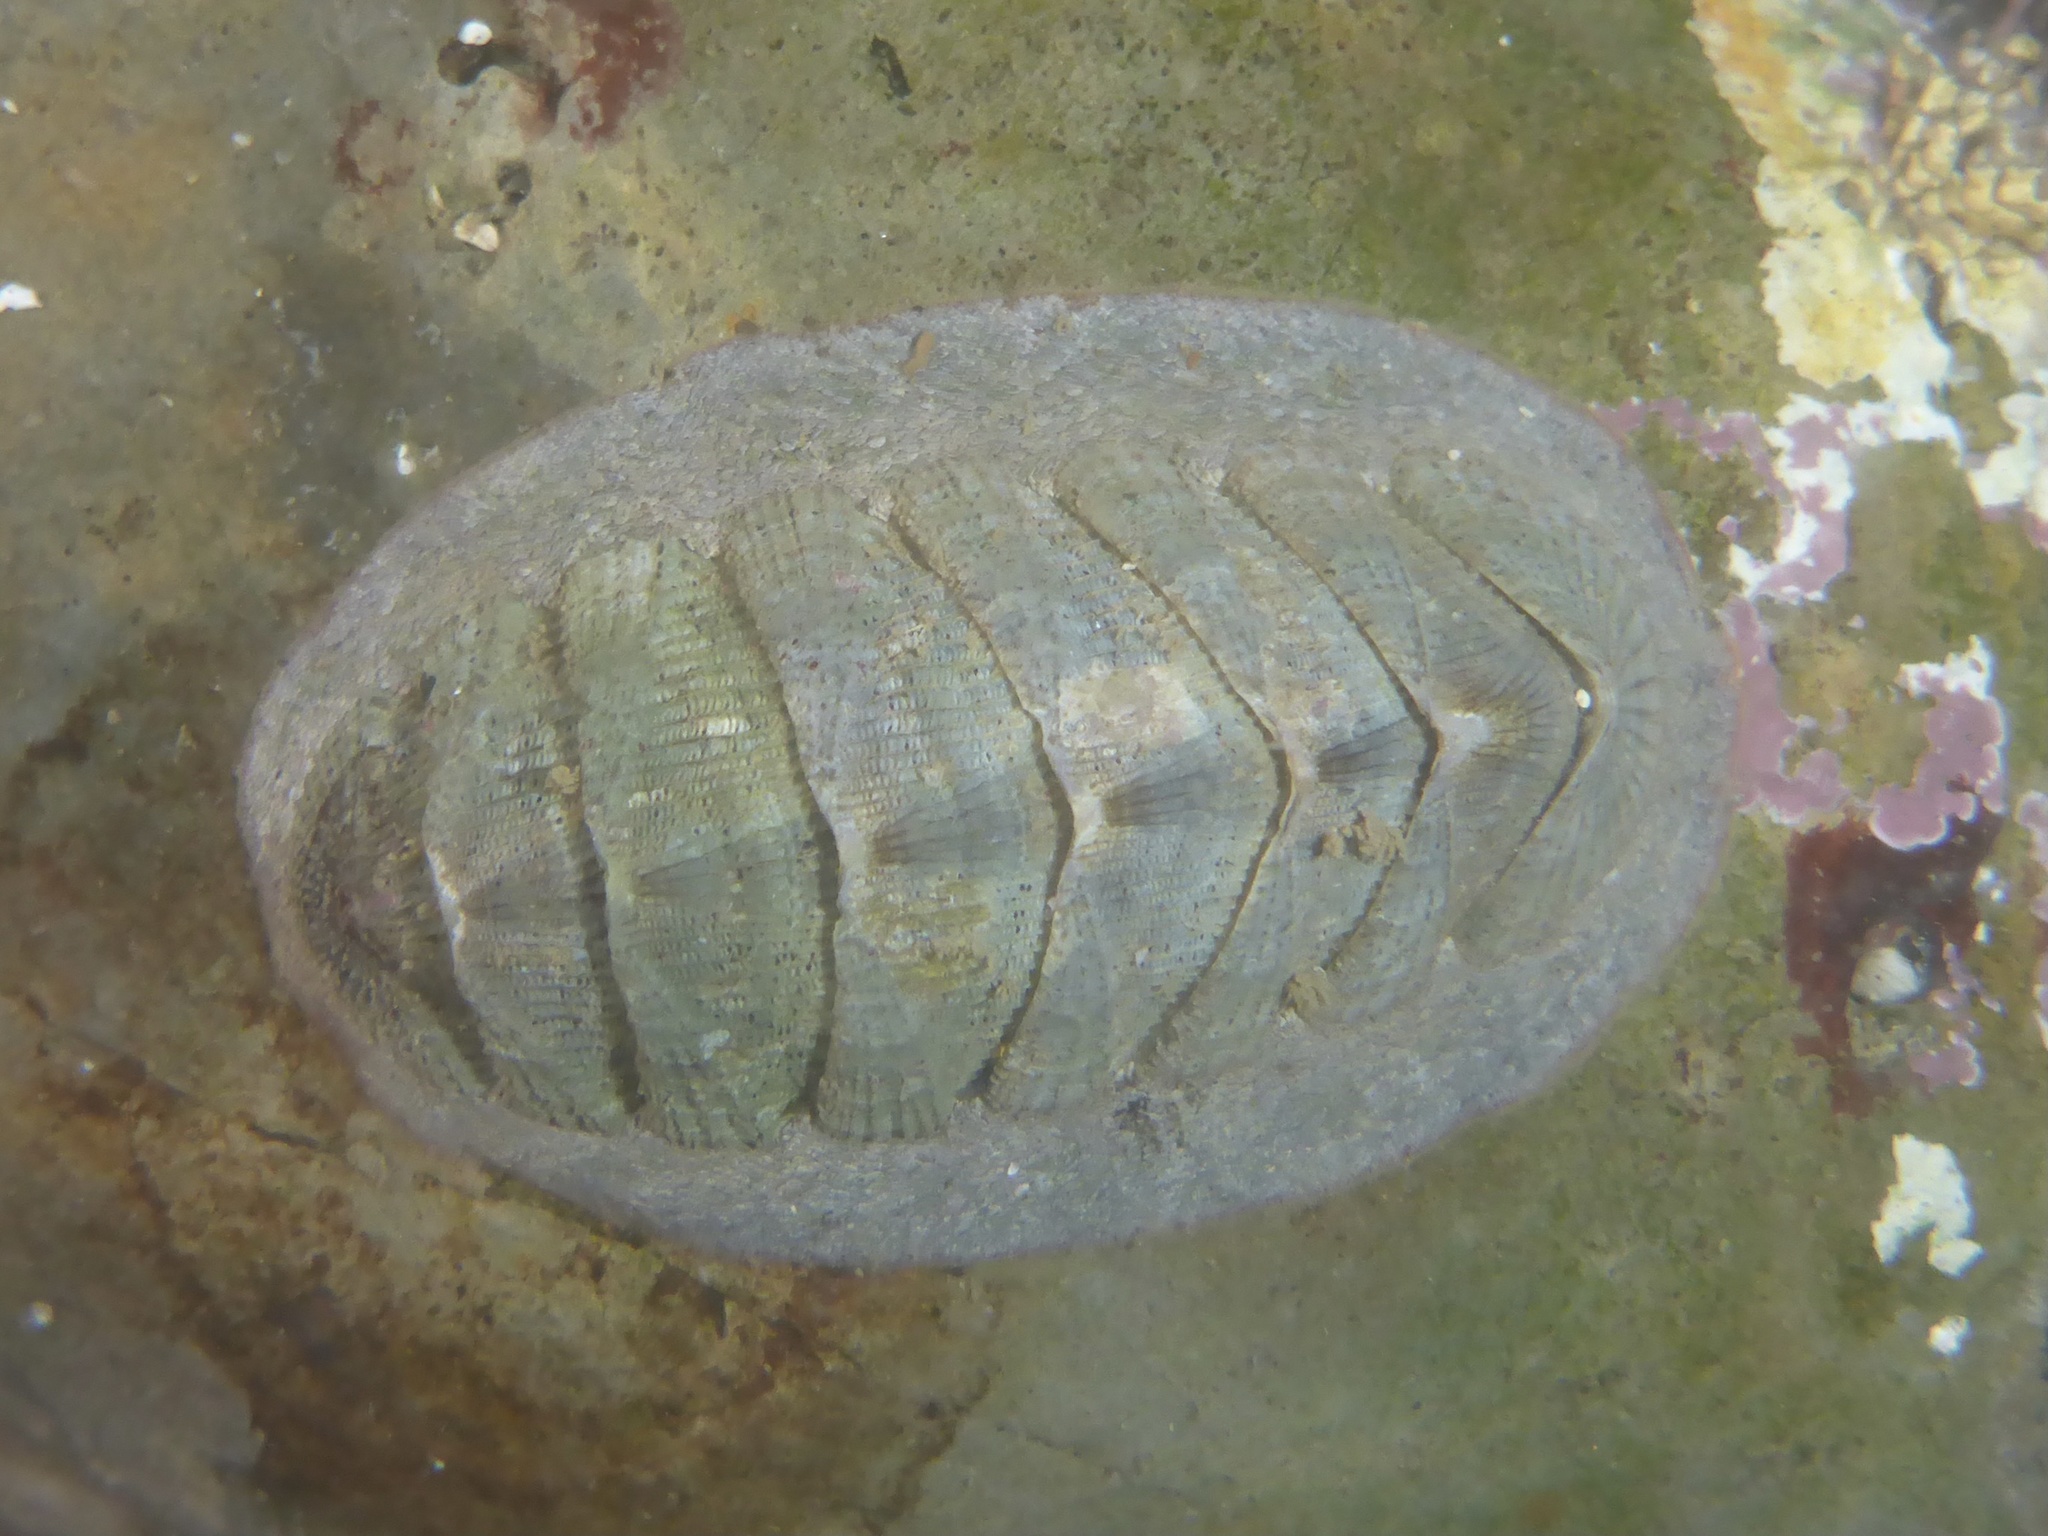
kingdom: Animalia
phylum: Mollusca
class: Polyplacophora
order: Chitonida
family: Ischnochitonidae
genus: Lepidozona
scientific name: Lepidozona cooperi
